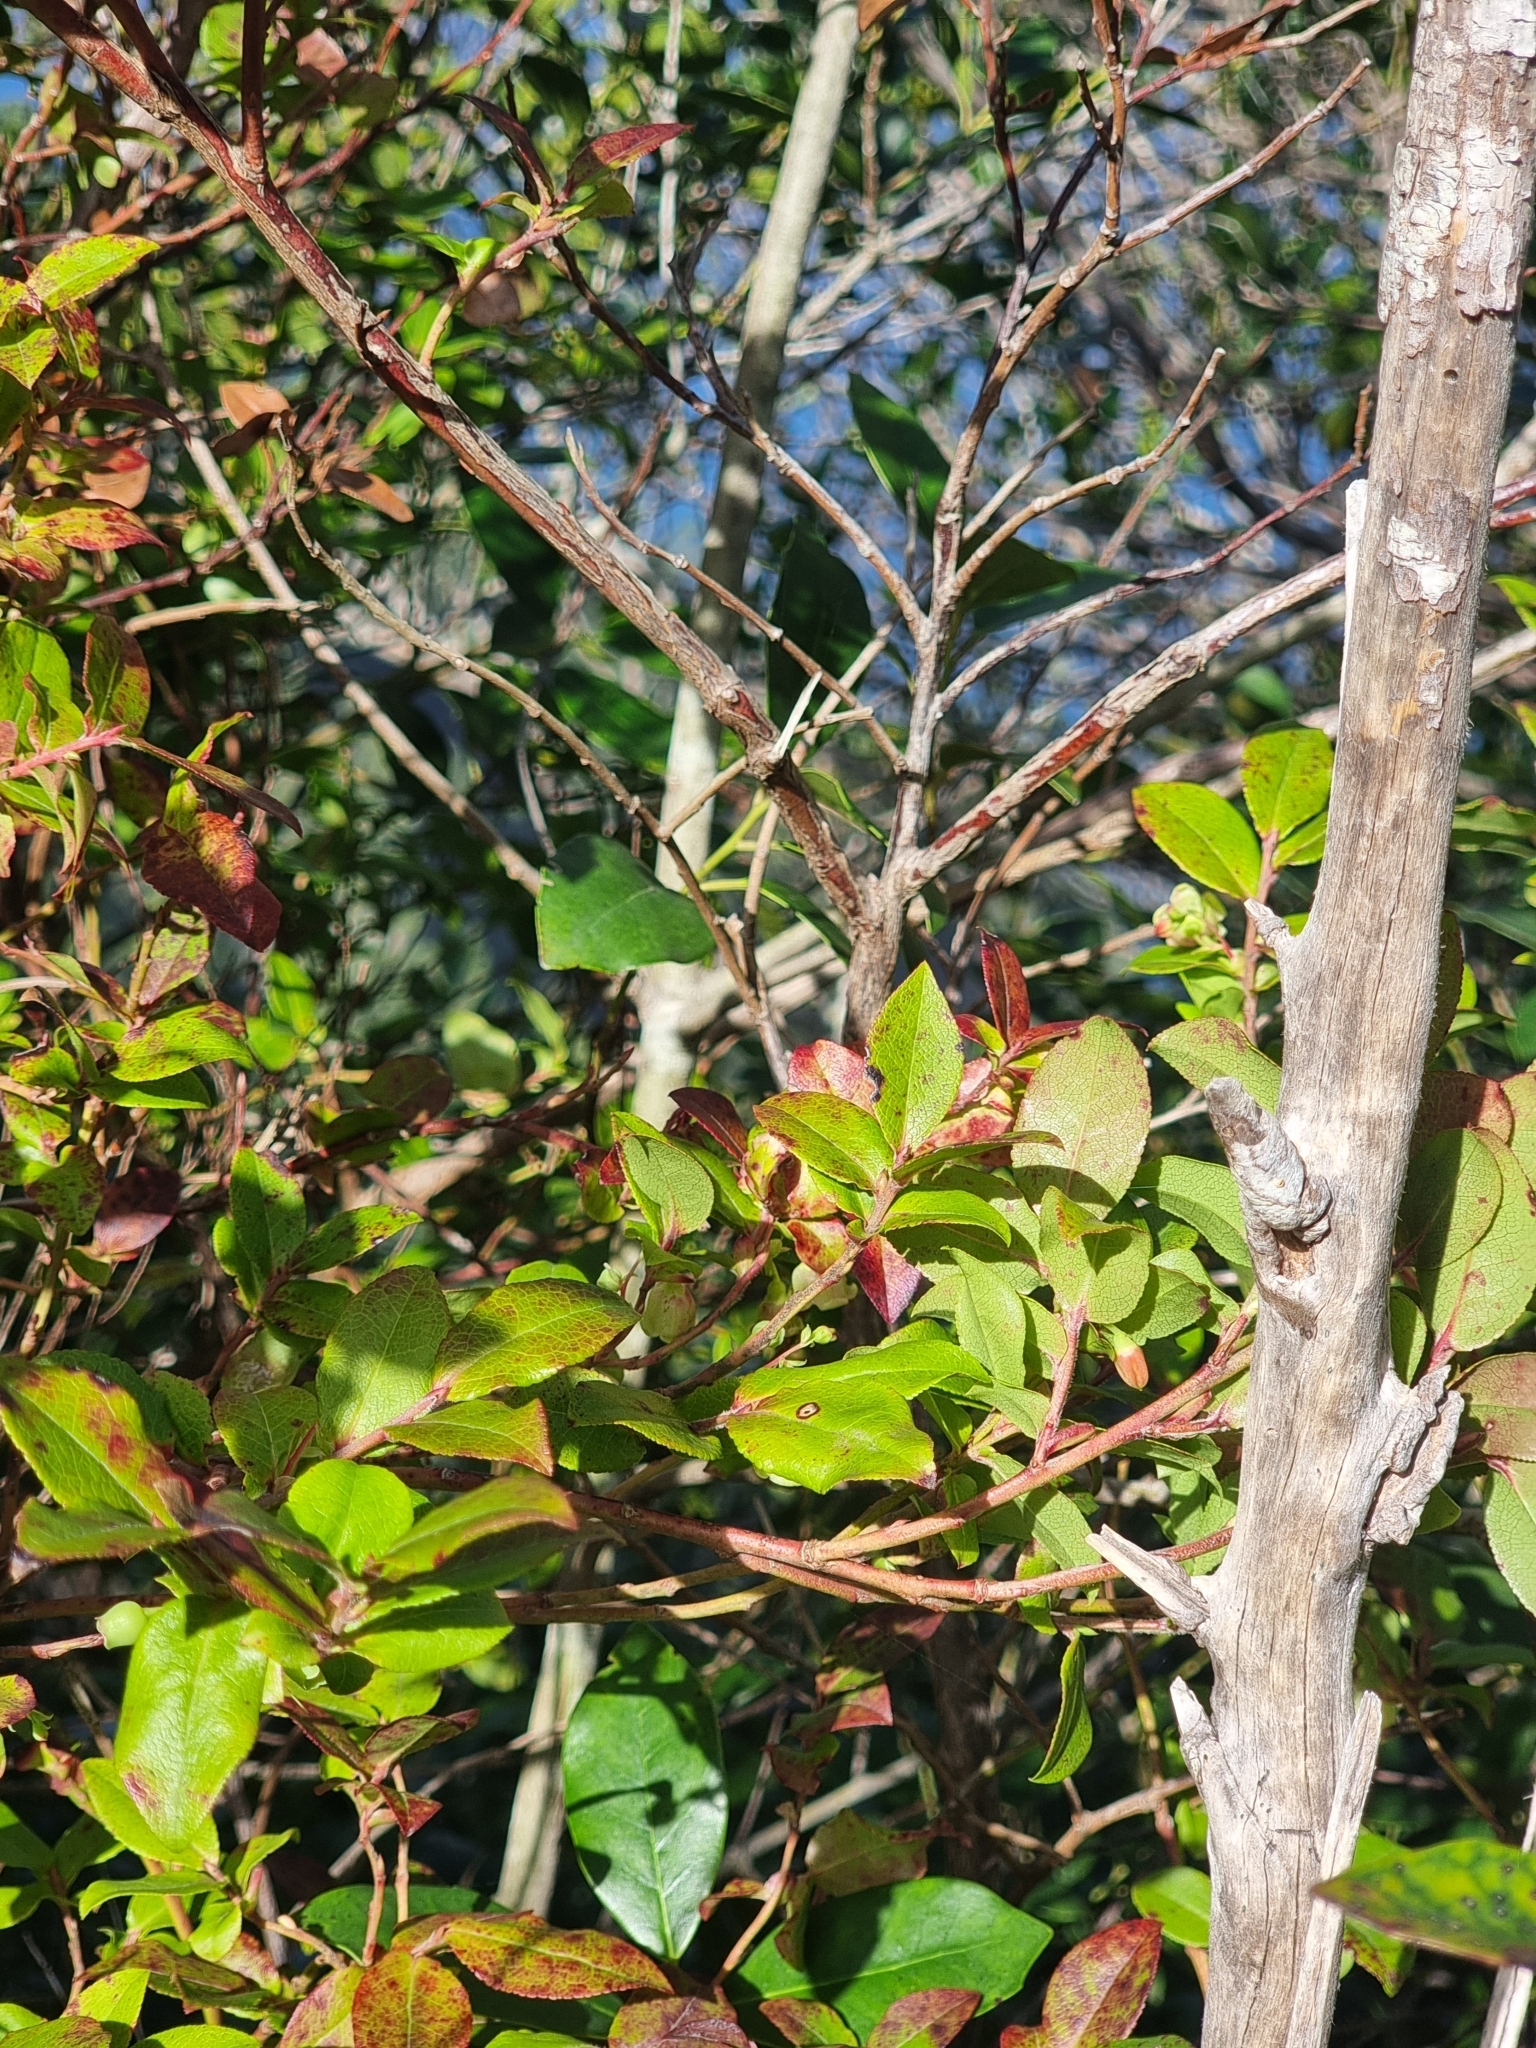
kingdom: Plantae
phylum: Tracheophyta
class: Magnoliopsida
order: Ericales
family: Ericaceae
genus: Vaccinium
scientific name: Vaccinium padifolium
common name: Madeiran blueberry
